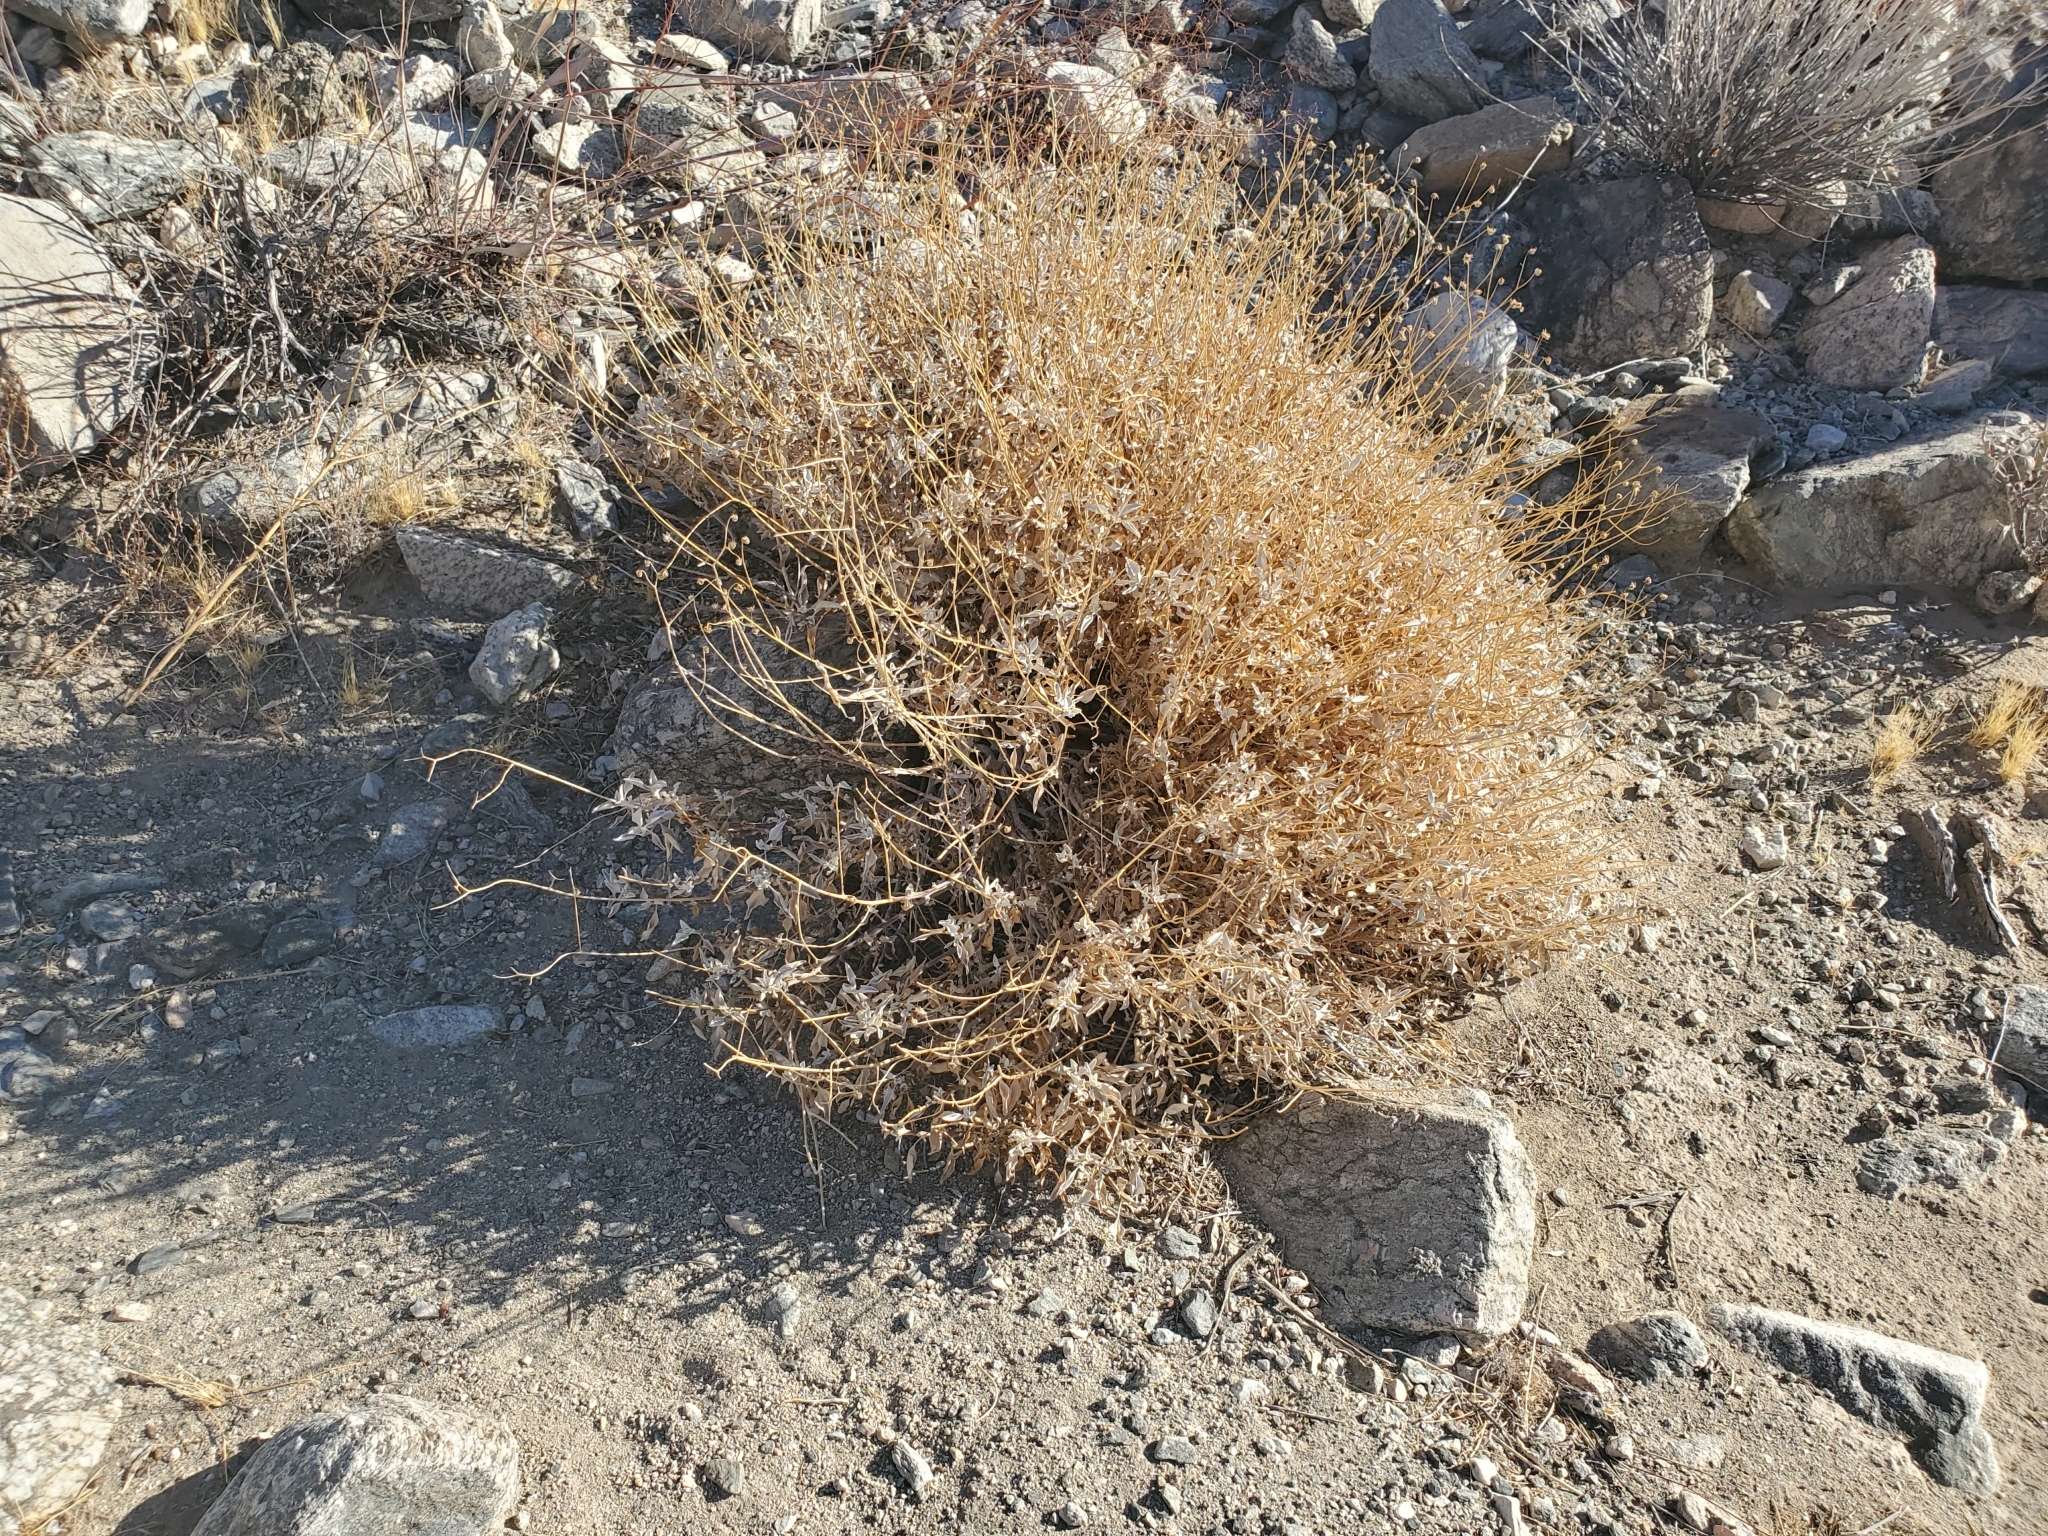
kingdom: Plantae
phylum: Tracheophyta
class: Magnoliopsida
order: Asterales
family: Asteraceae
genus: Encelia
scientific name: Encelia farinosa
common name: Brittlebush
